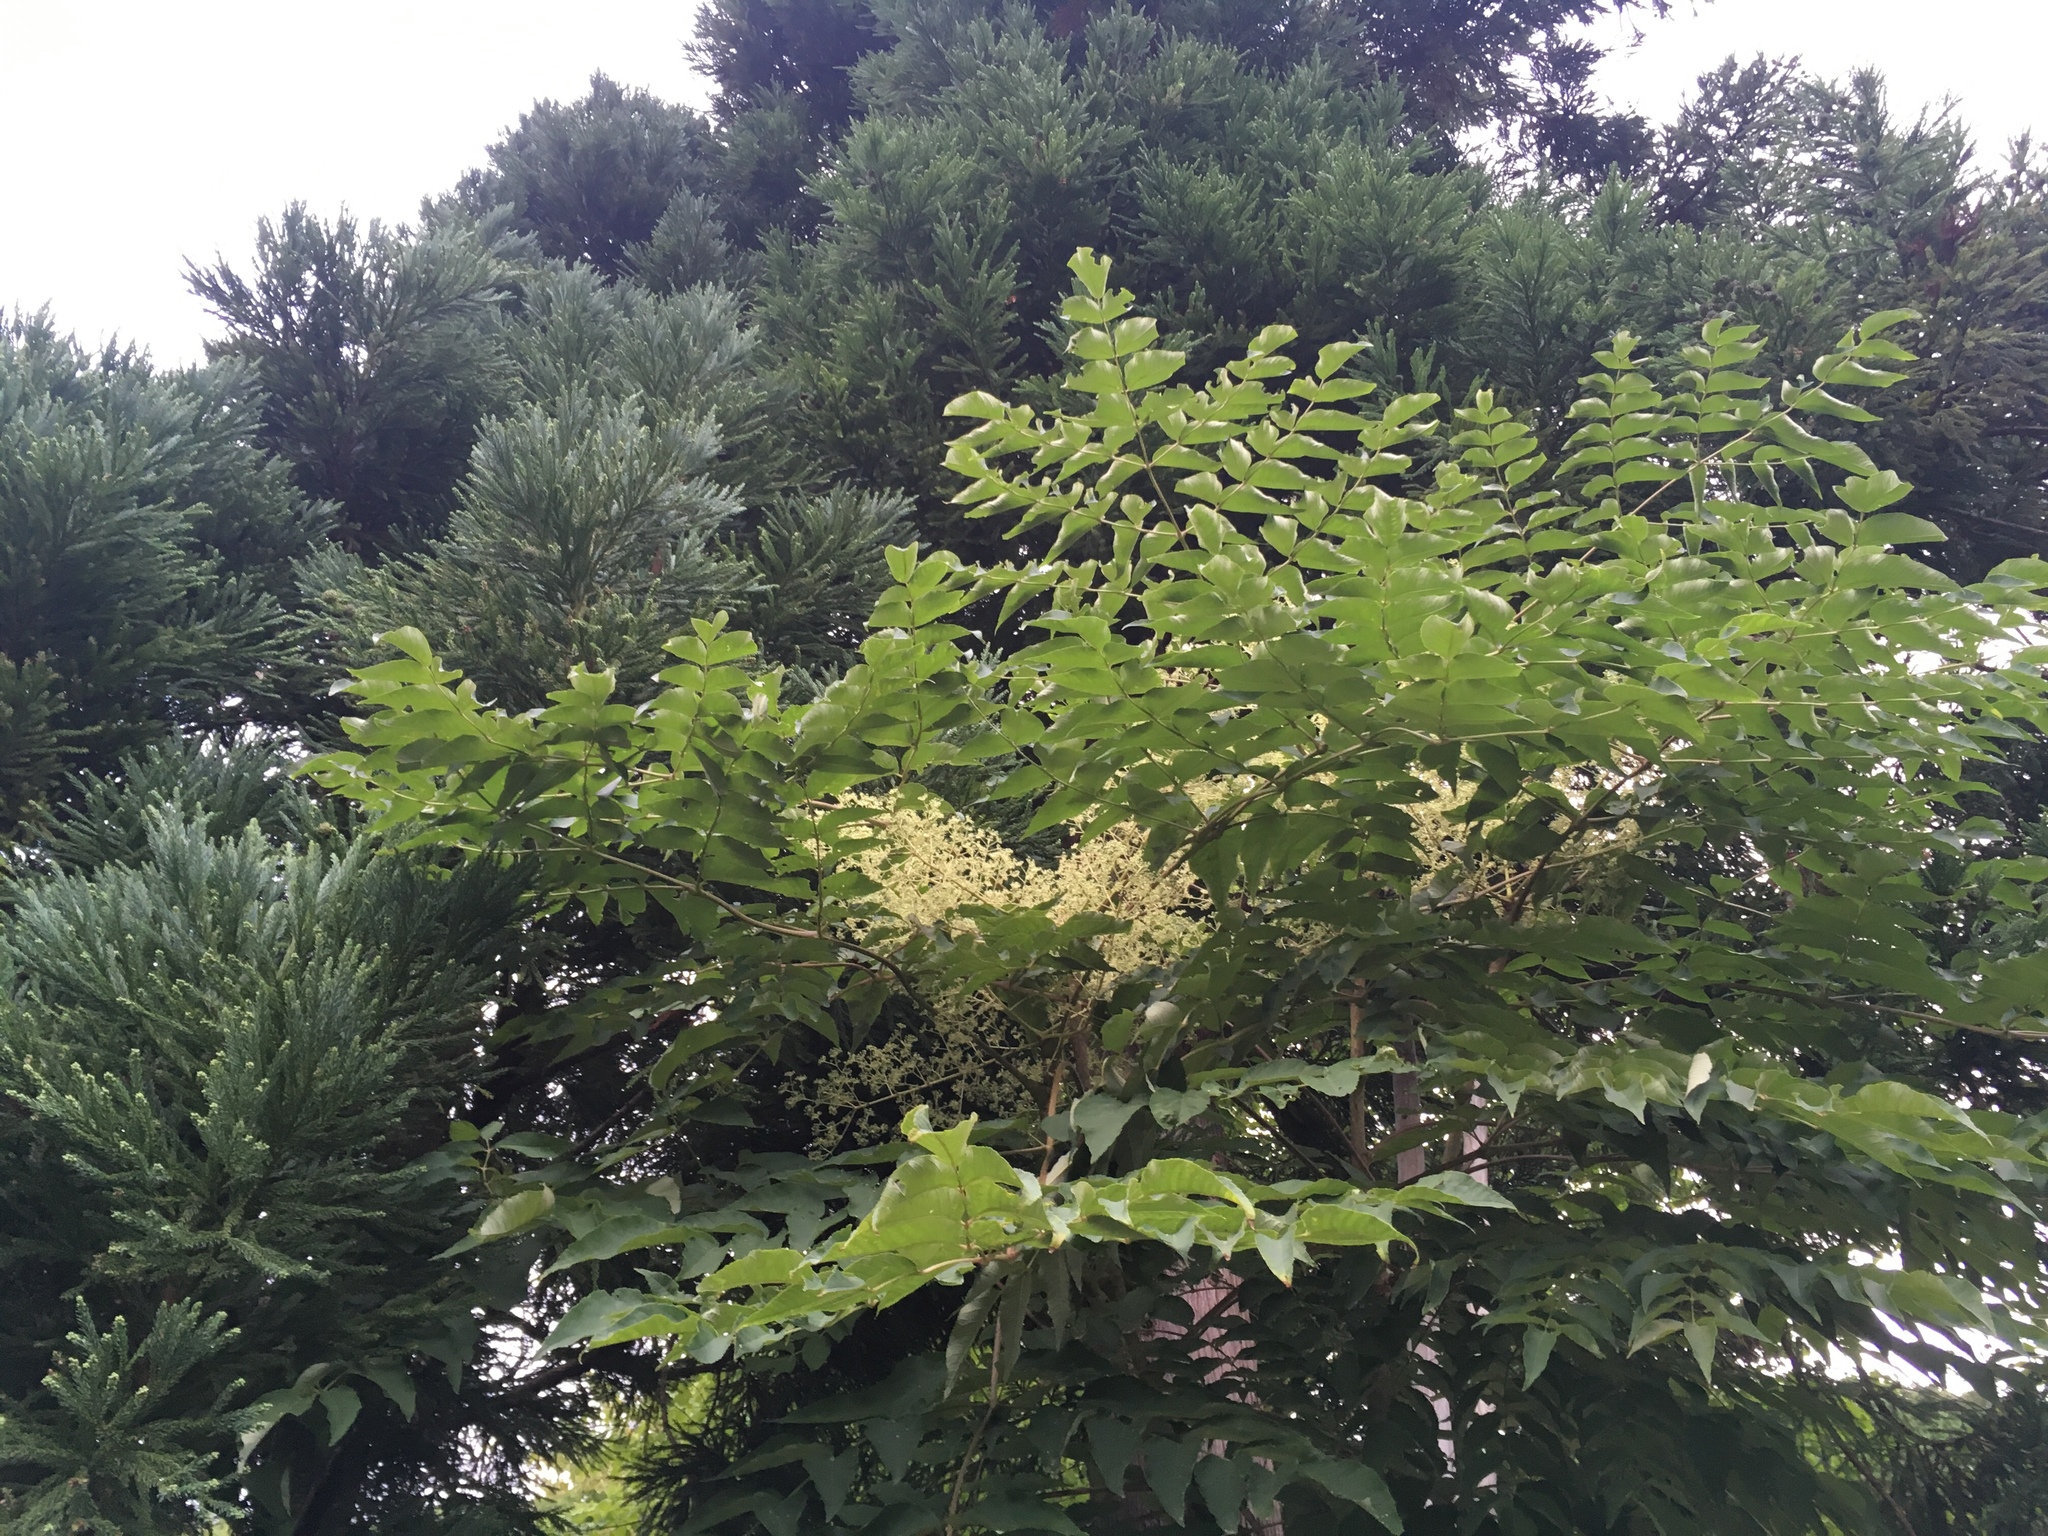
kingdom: Plantae
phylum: Tracheophyta
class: Magnoliopsida
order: Apiales
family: Araliaceae
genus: Aralia
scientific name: Aralia elata
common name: Japanese angelica-tree
